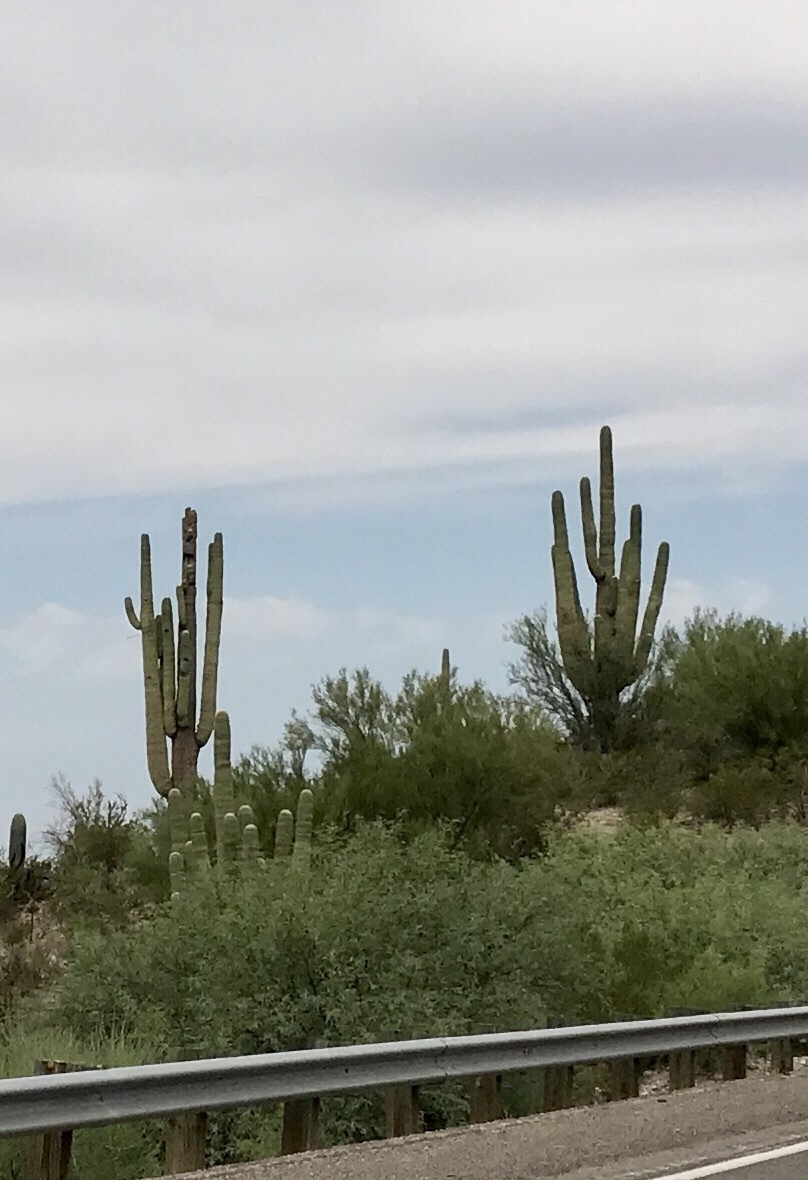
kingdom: Plantae
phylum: Tracheophyta
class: Magnoliopsida
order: Caryophyllales
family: Cactaceae
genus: Carnegiea
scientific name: Carnegiea gigantea
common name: Saguaro
